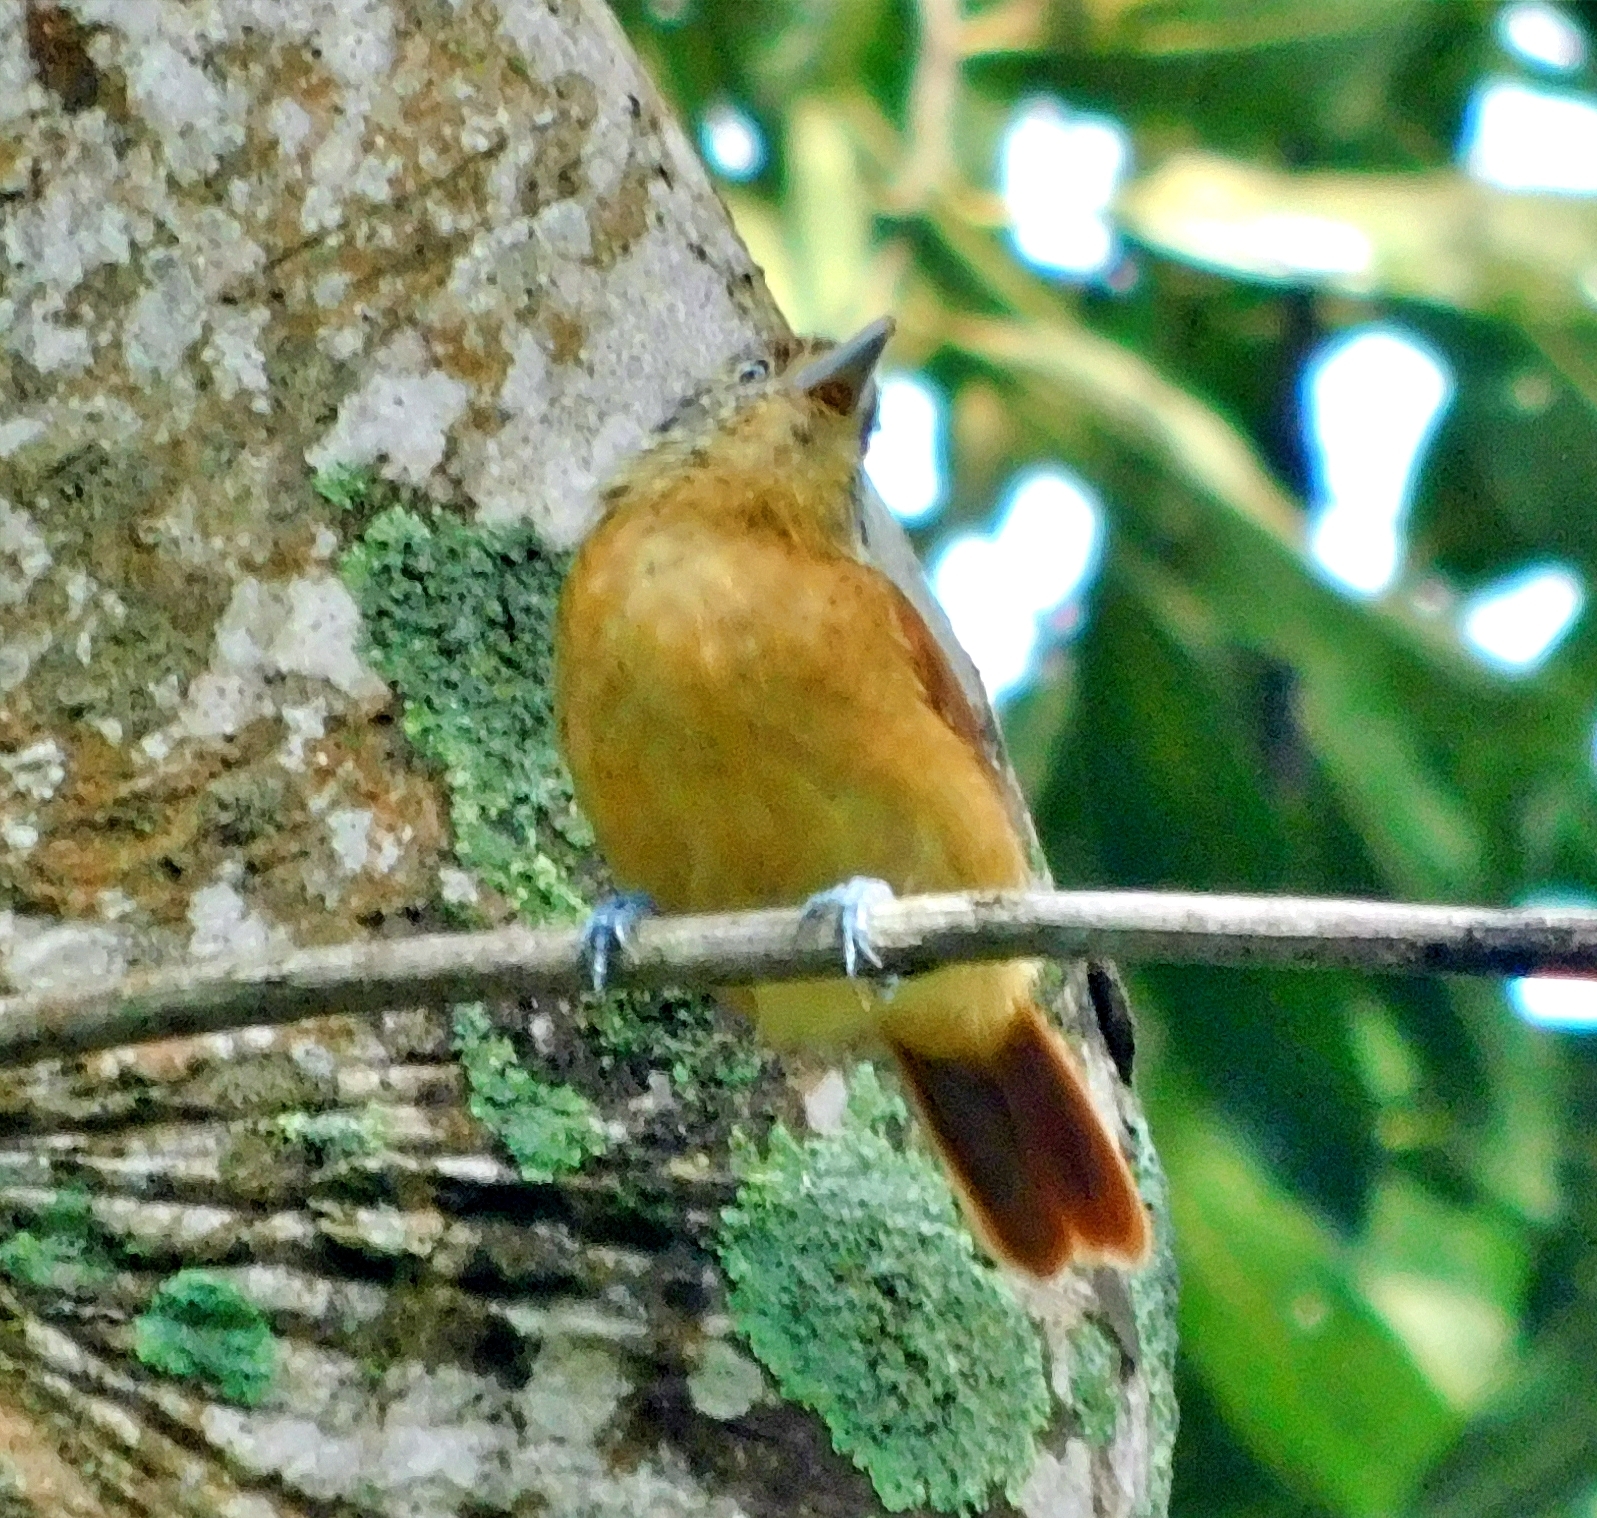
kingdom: Animalia
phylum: Chordata
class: Aves
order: Passeriformes
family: Thamnophilidae
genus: Thamnophilus
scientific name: Thamnophilus doliatus
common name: Barred antshrike
